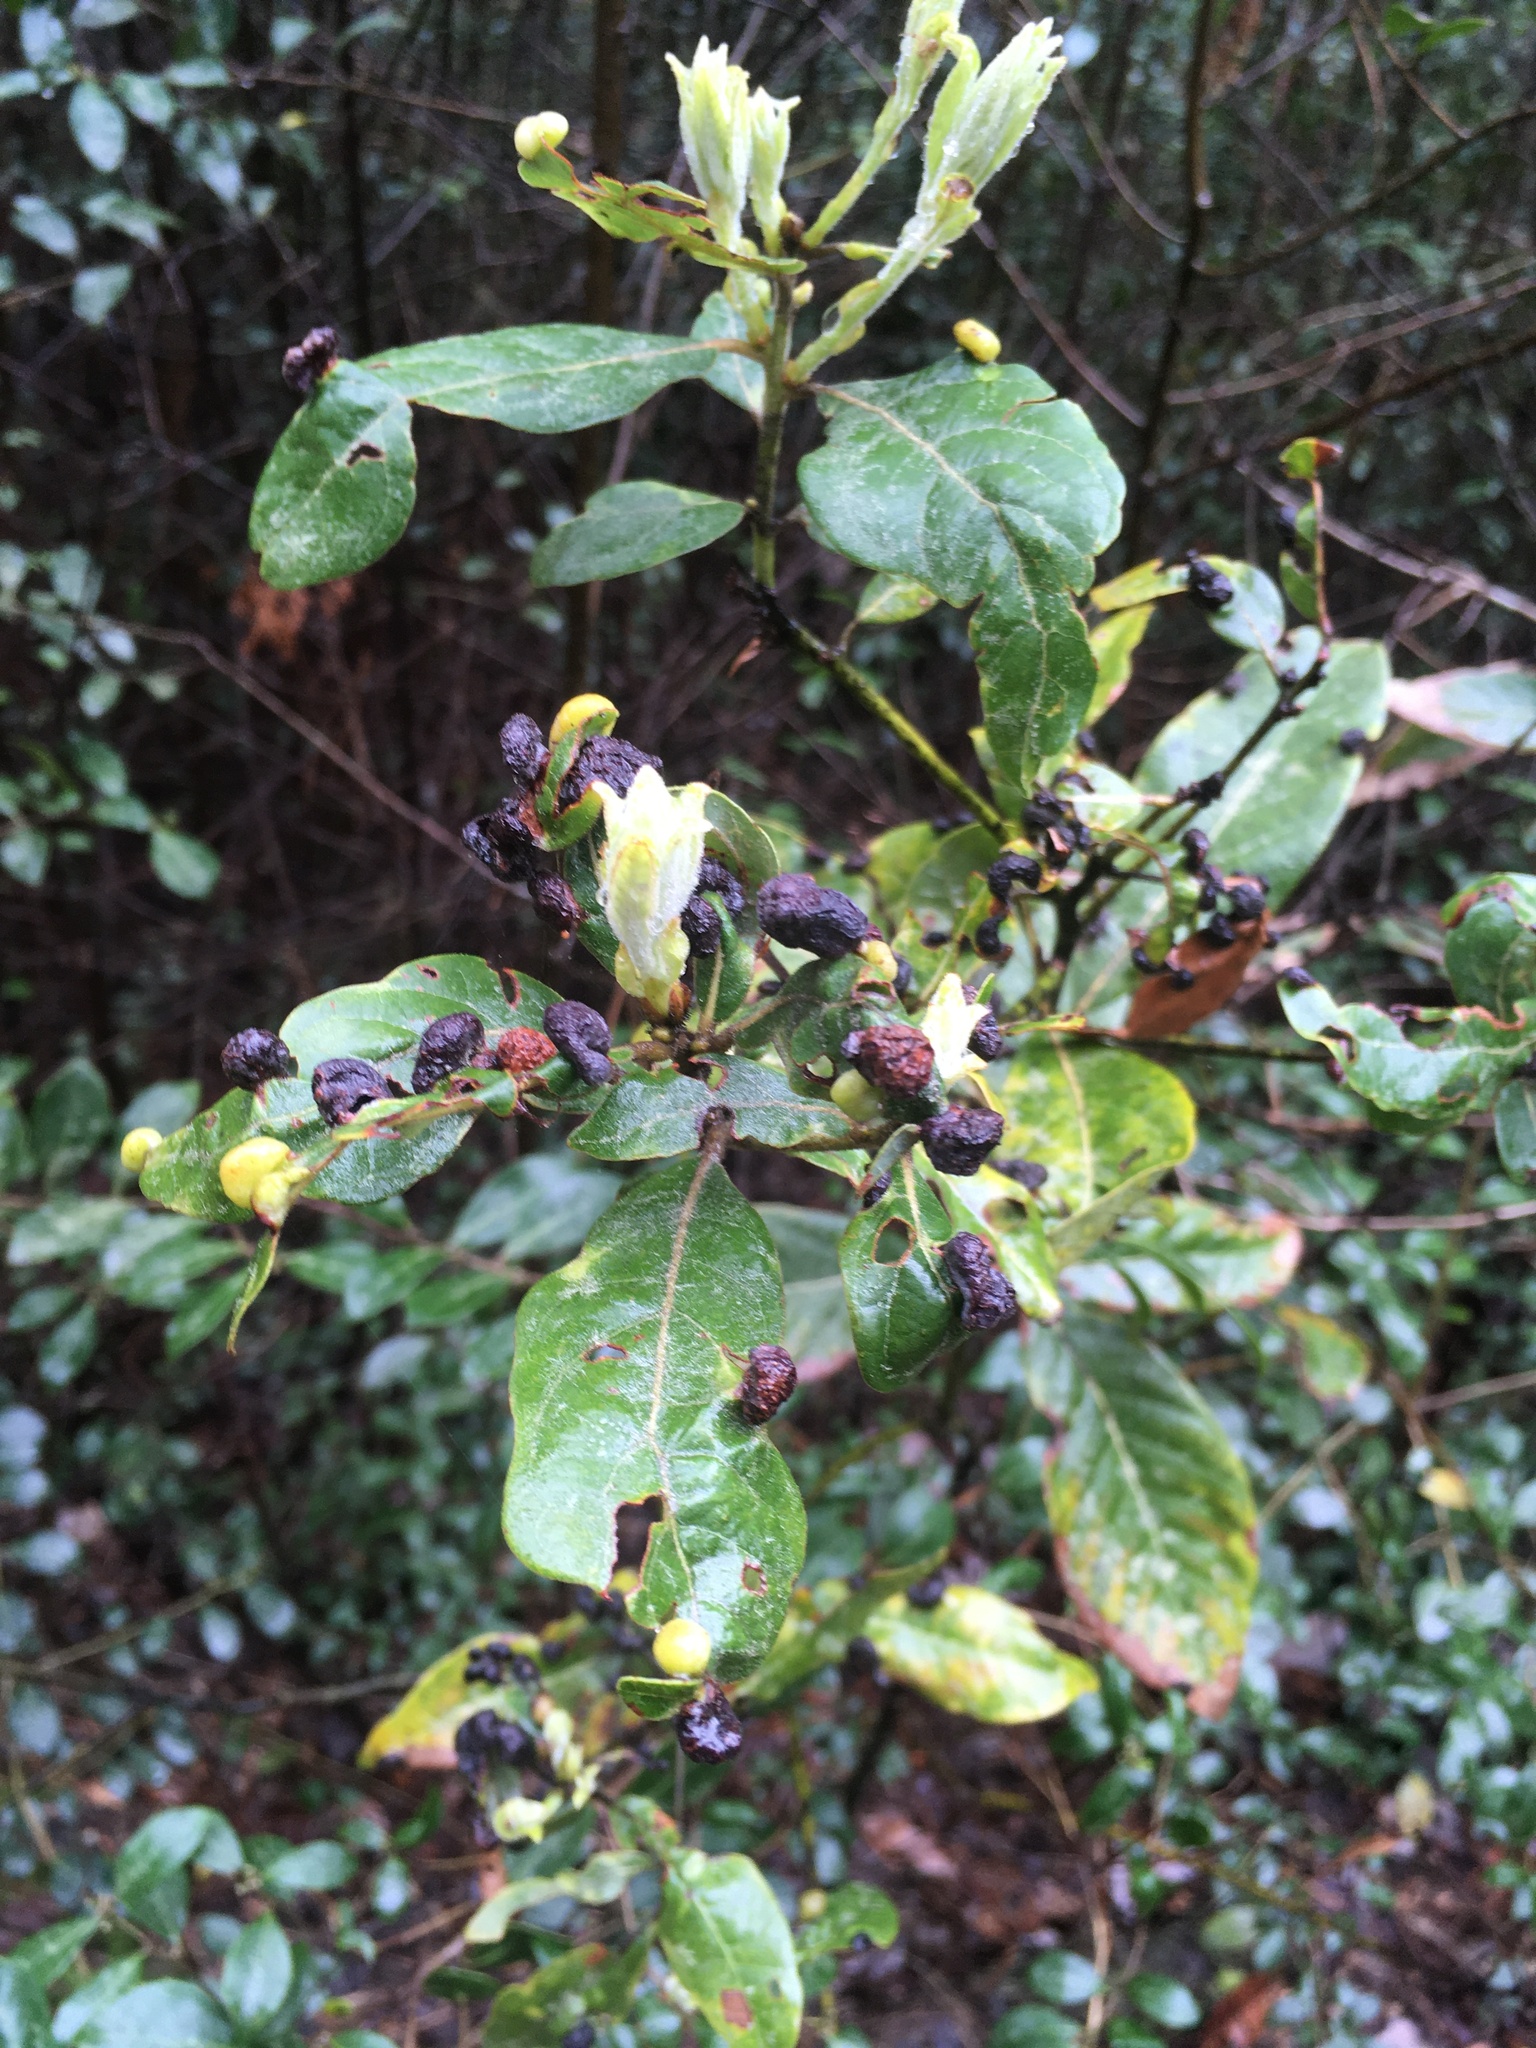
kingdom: Animalia
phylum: Arthropoda
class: Insecta
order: Hemiptera
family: Triozidae
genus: Trioza
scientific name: Trioza magnoliae
